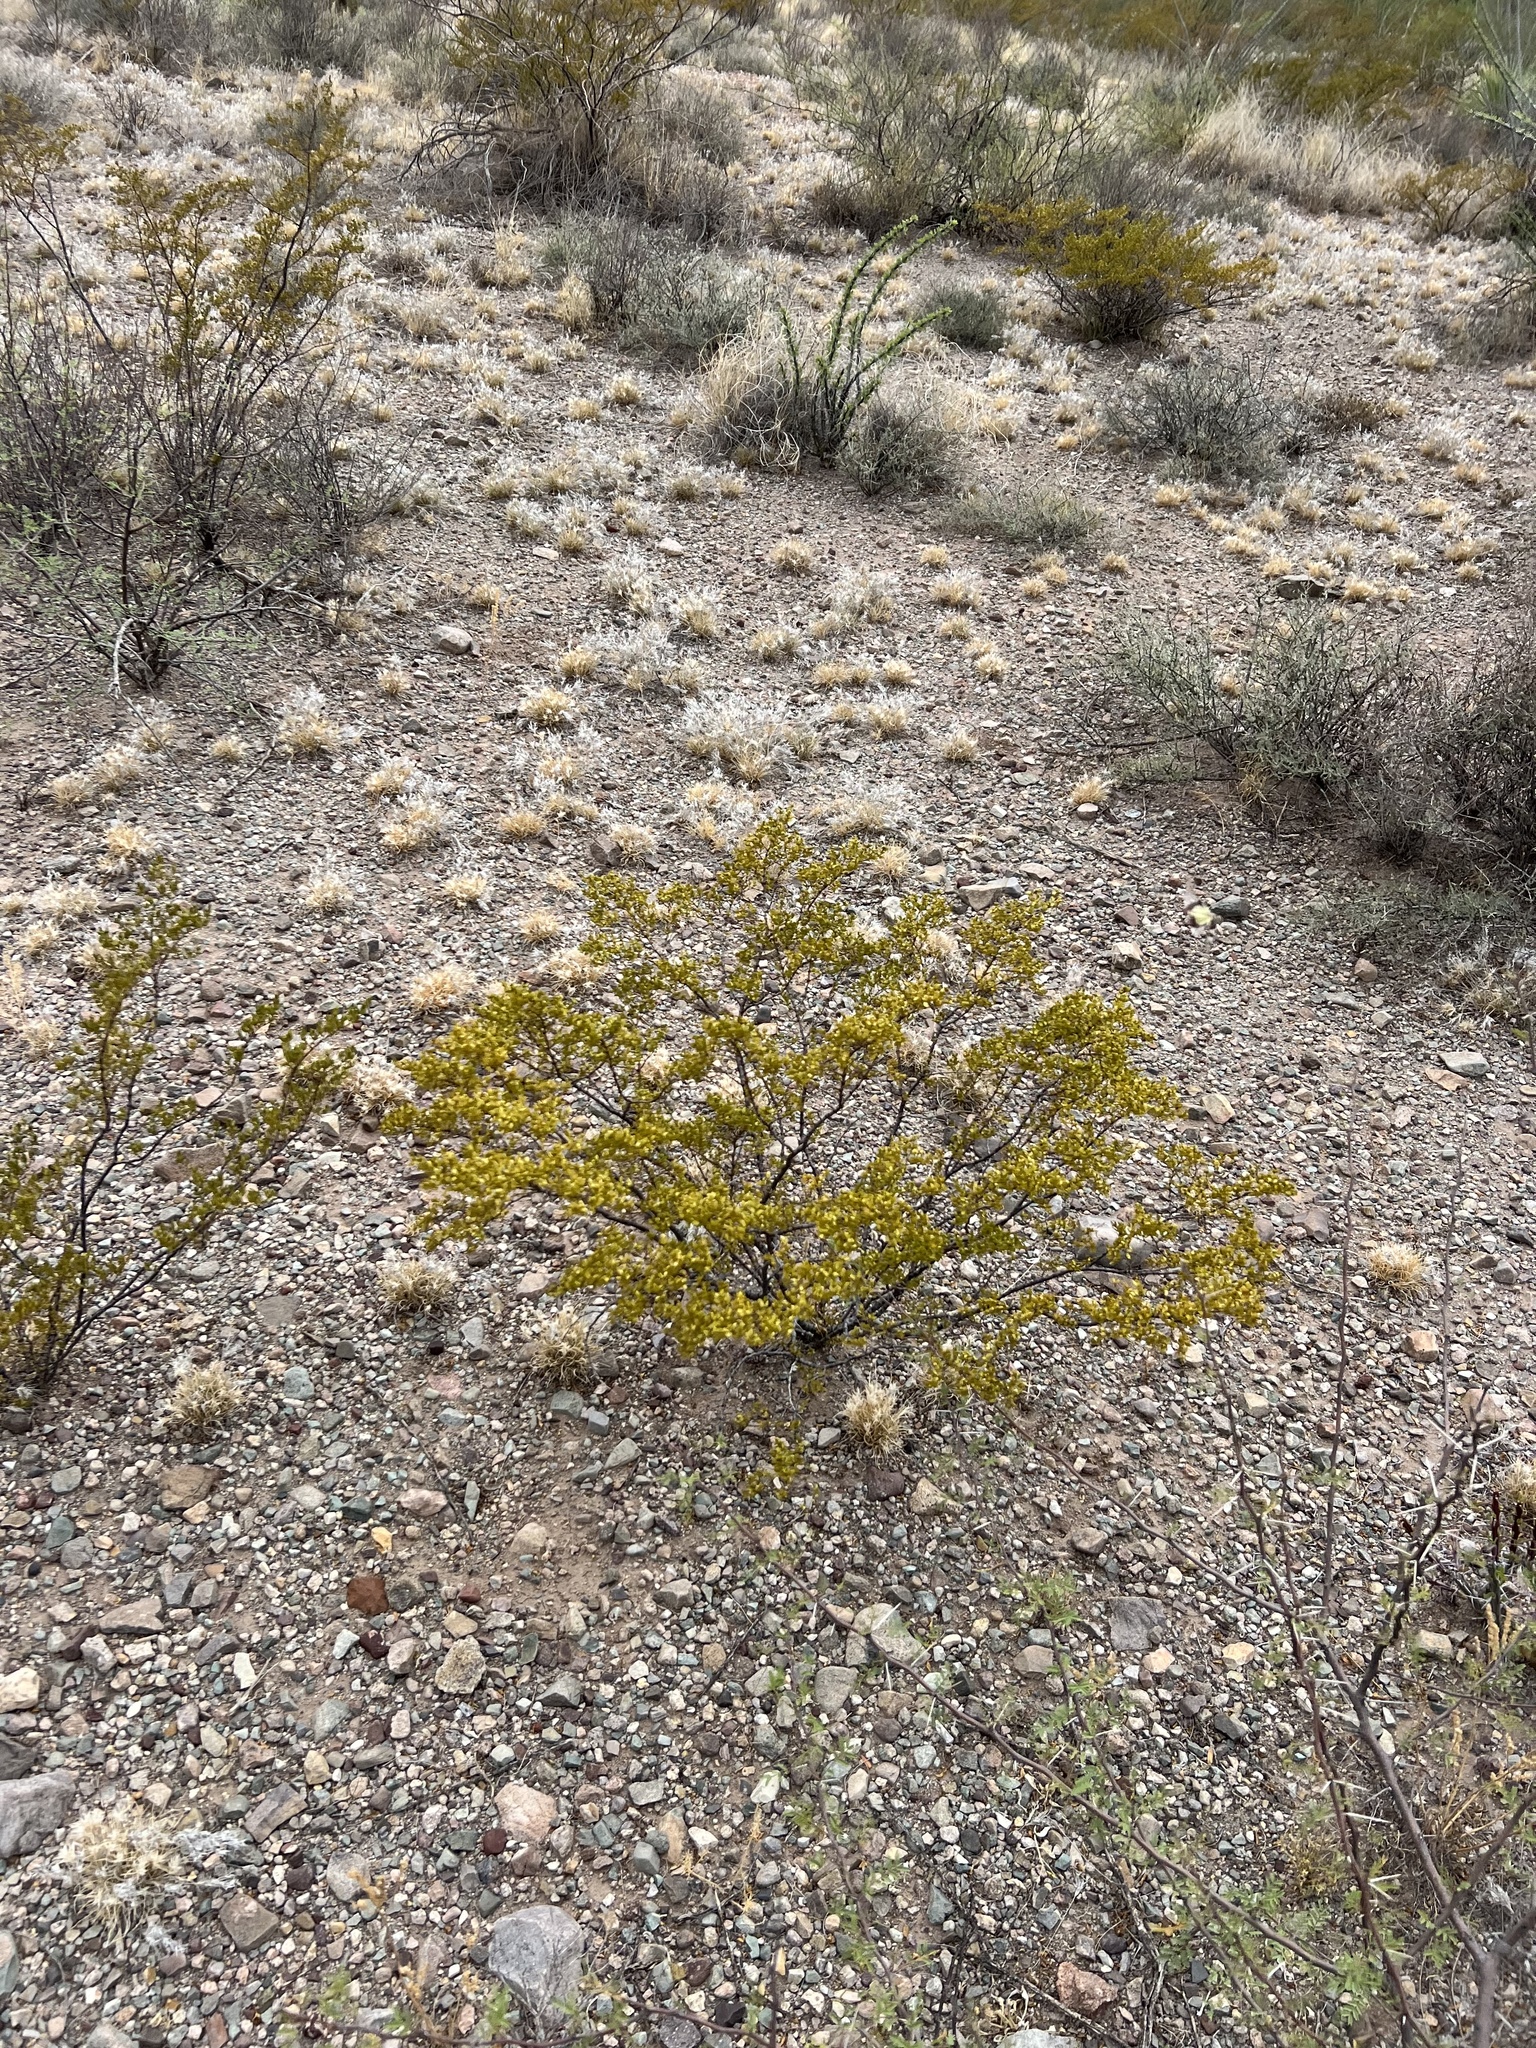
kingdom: Plantae
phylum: Tracheophyta
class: Magnoliopsida
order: Zygophyllales
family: Zygophyllaceae
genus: Larrea
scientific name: Larrea tridentata
